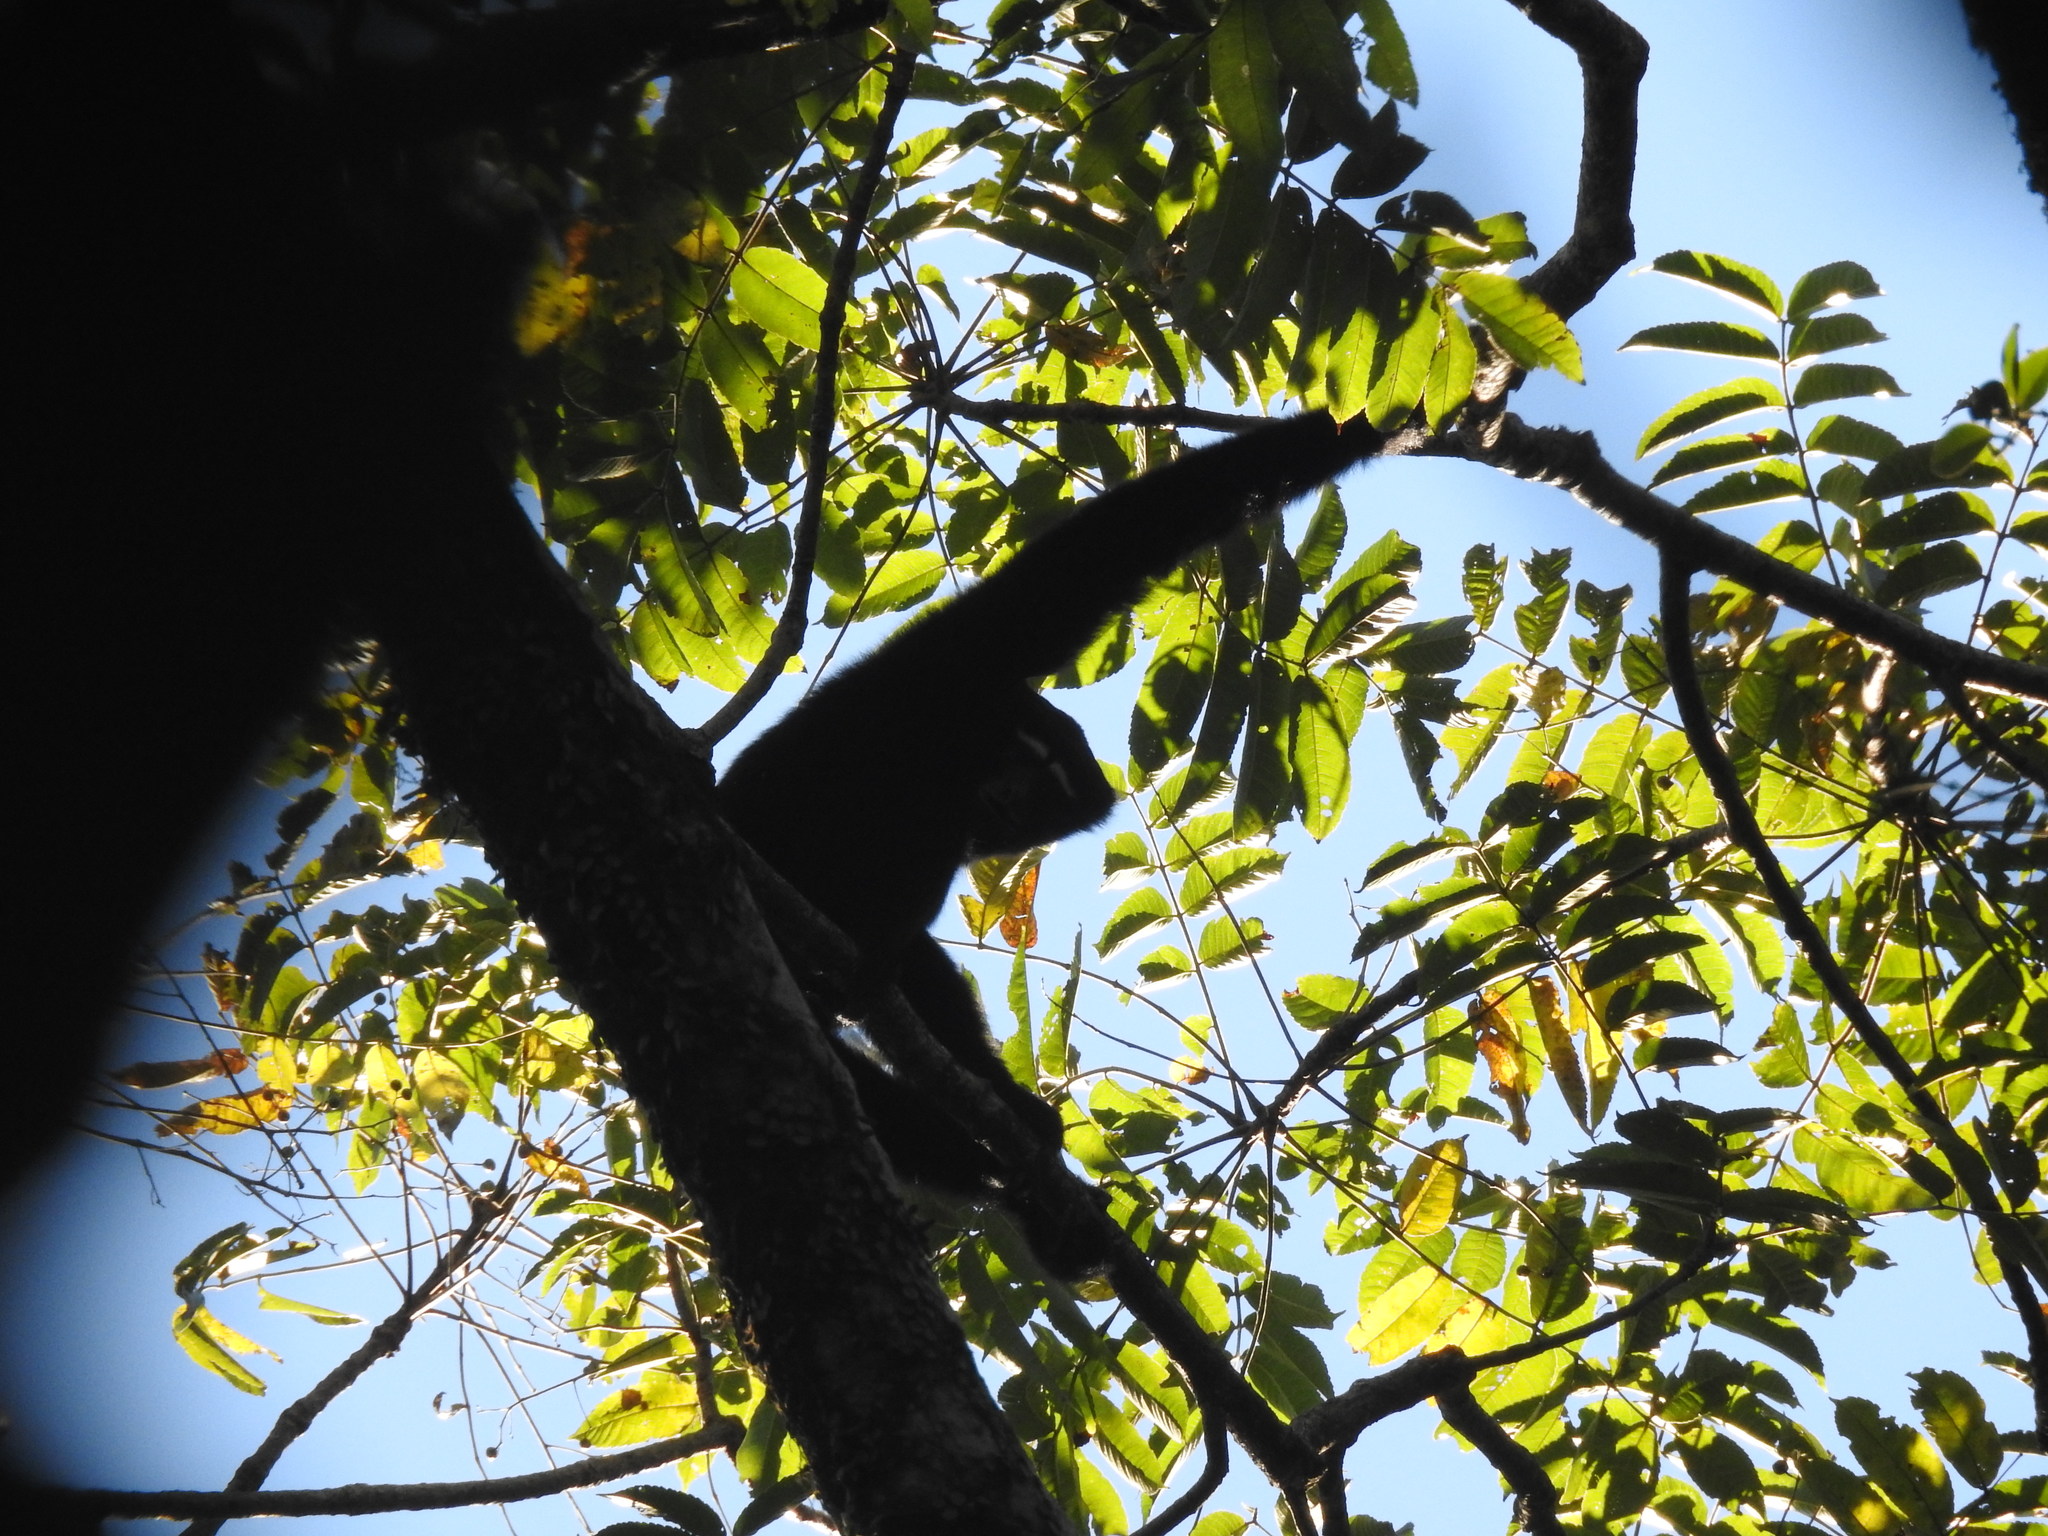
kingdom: Animalia
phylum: Chordata
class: Mammalia
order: Primates
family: Hylobatidae
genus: Hoolock
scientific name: Hoolock hoolock
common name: Western hoolock gibbon
